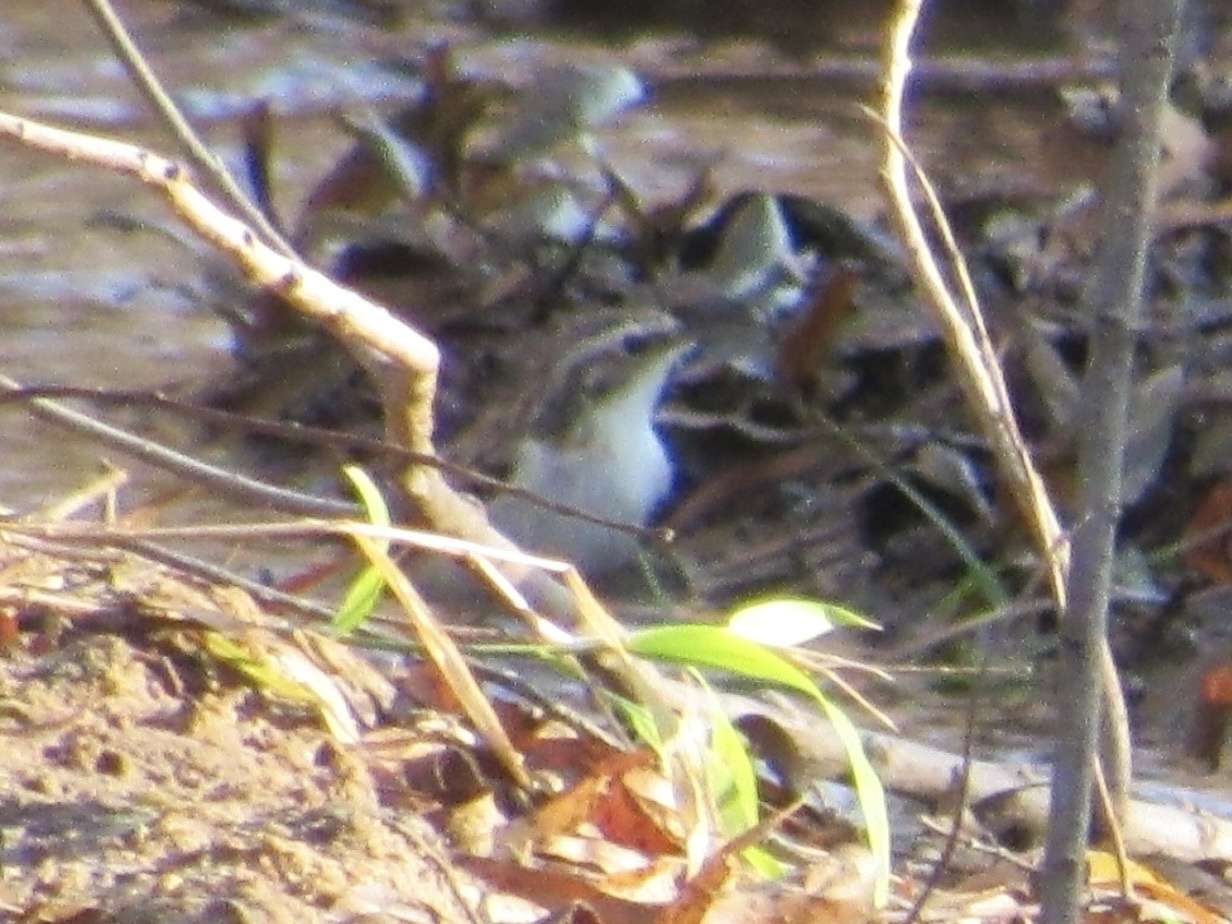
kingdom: Animalia
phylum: Chordata
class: Aves
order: Passeriformes
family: Certhiidae
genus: Certhia
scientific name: Certhia americana
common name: Brown creeper
